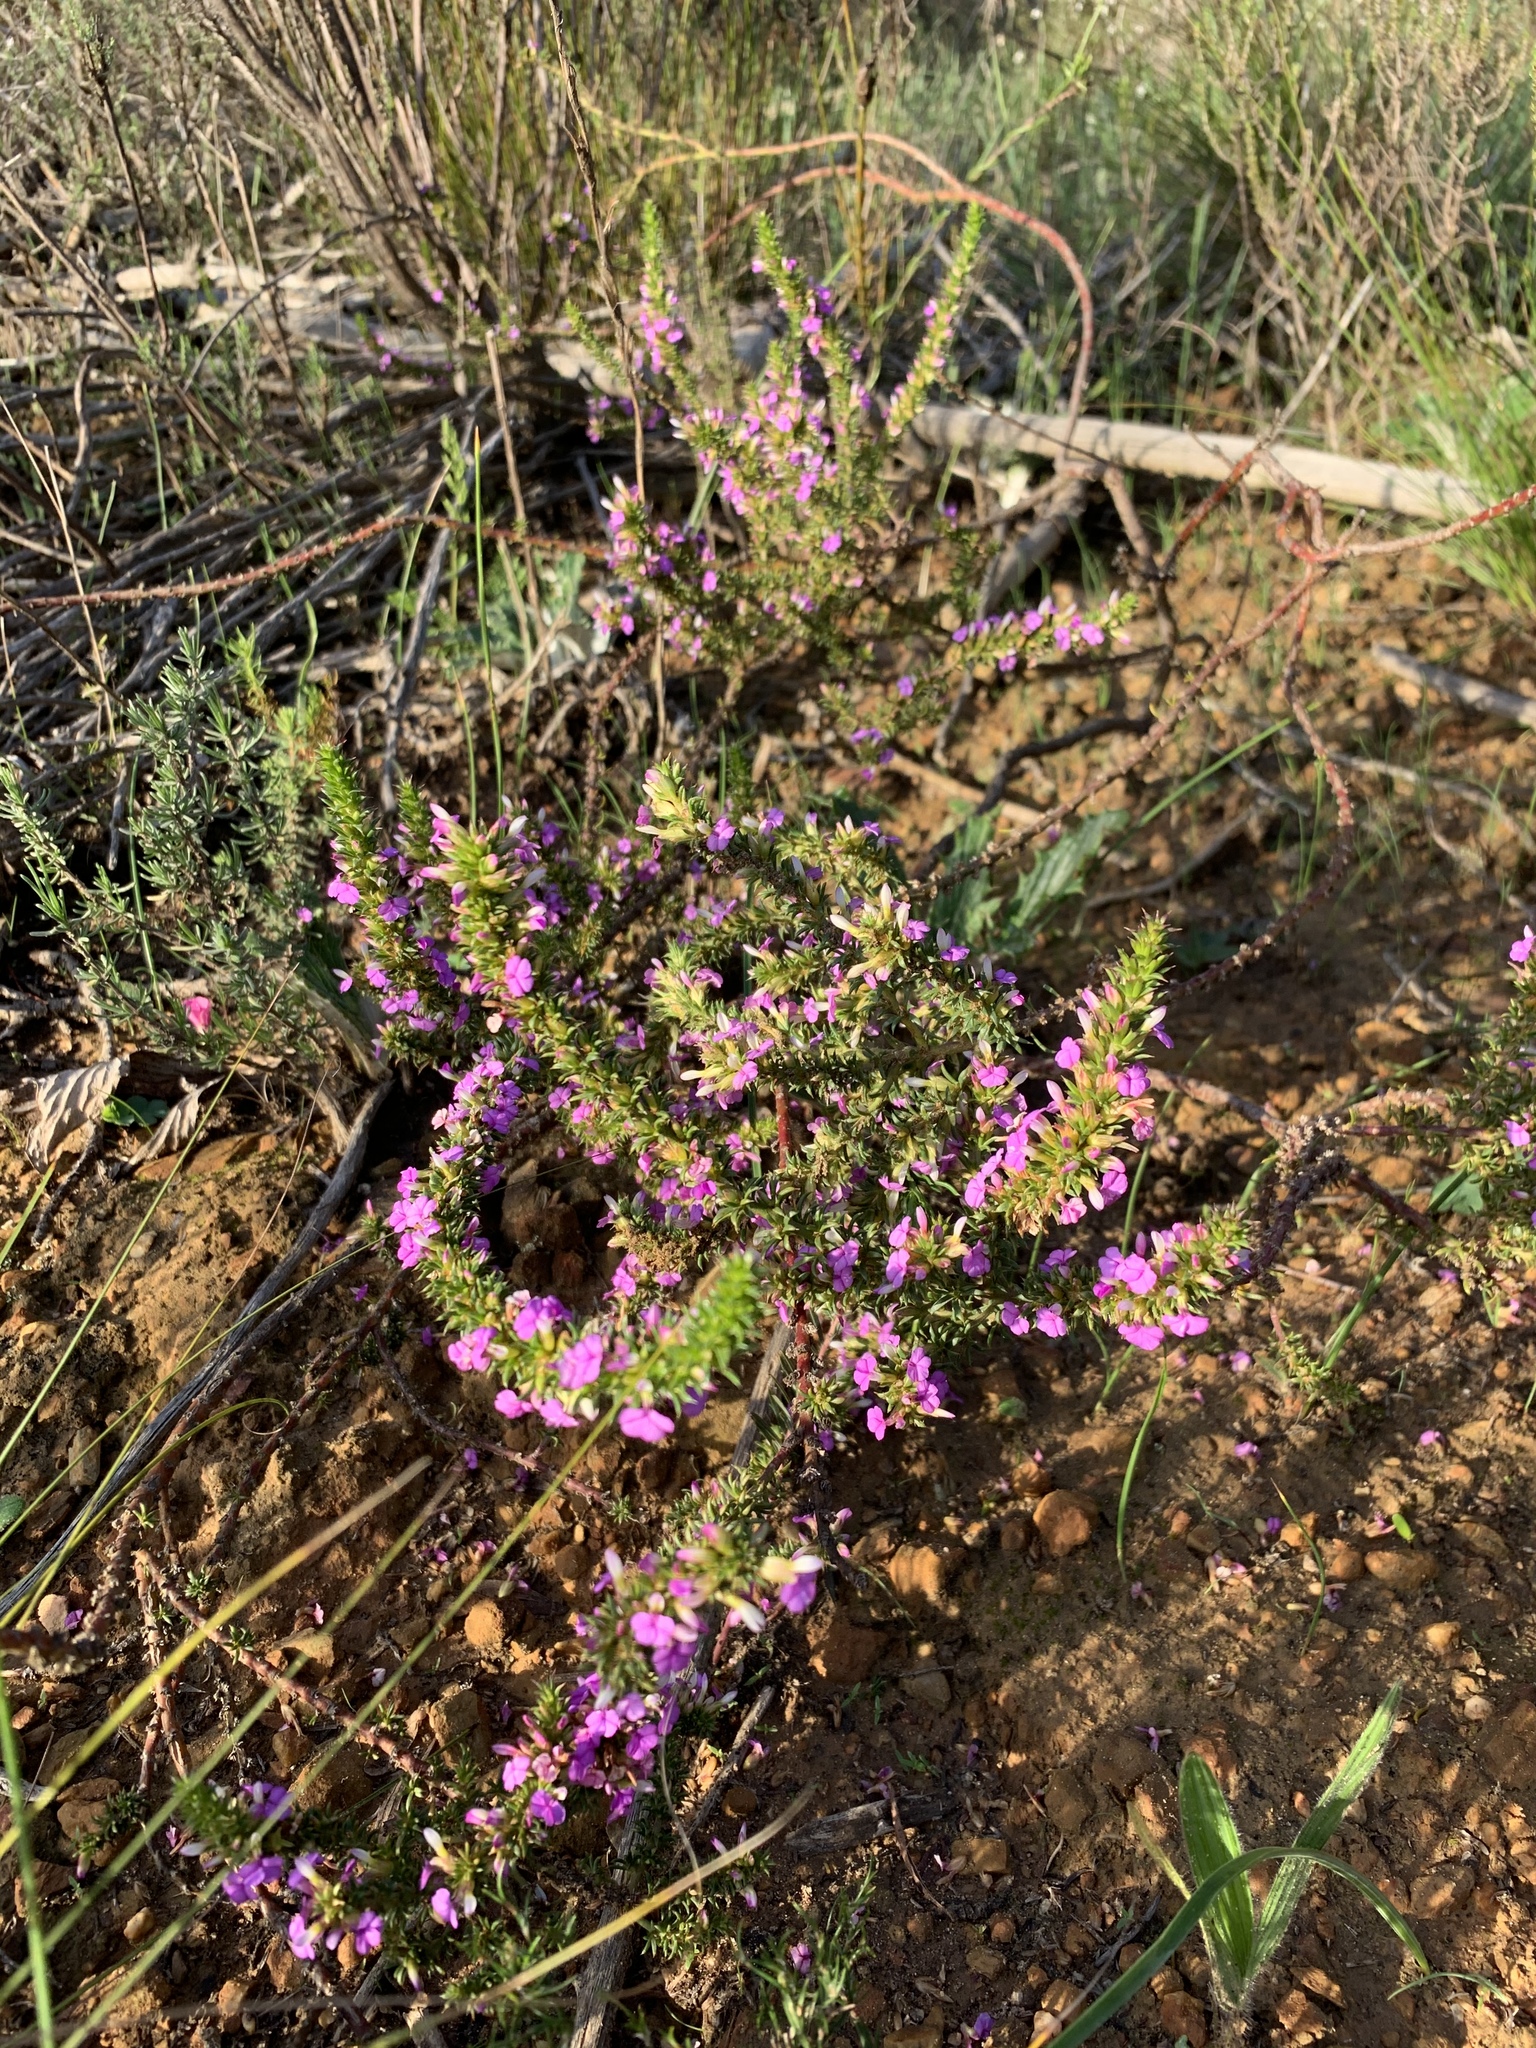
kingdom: Plantae
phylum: Tracheophyta
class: Magnoliopsida
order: Fabales
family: Polygalaceae
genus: Muraltia
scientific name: Muraltia heisteria
